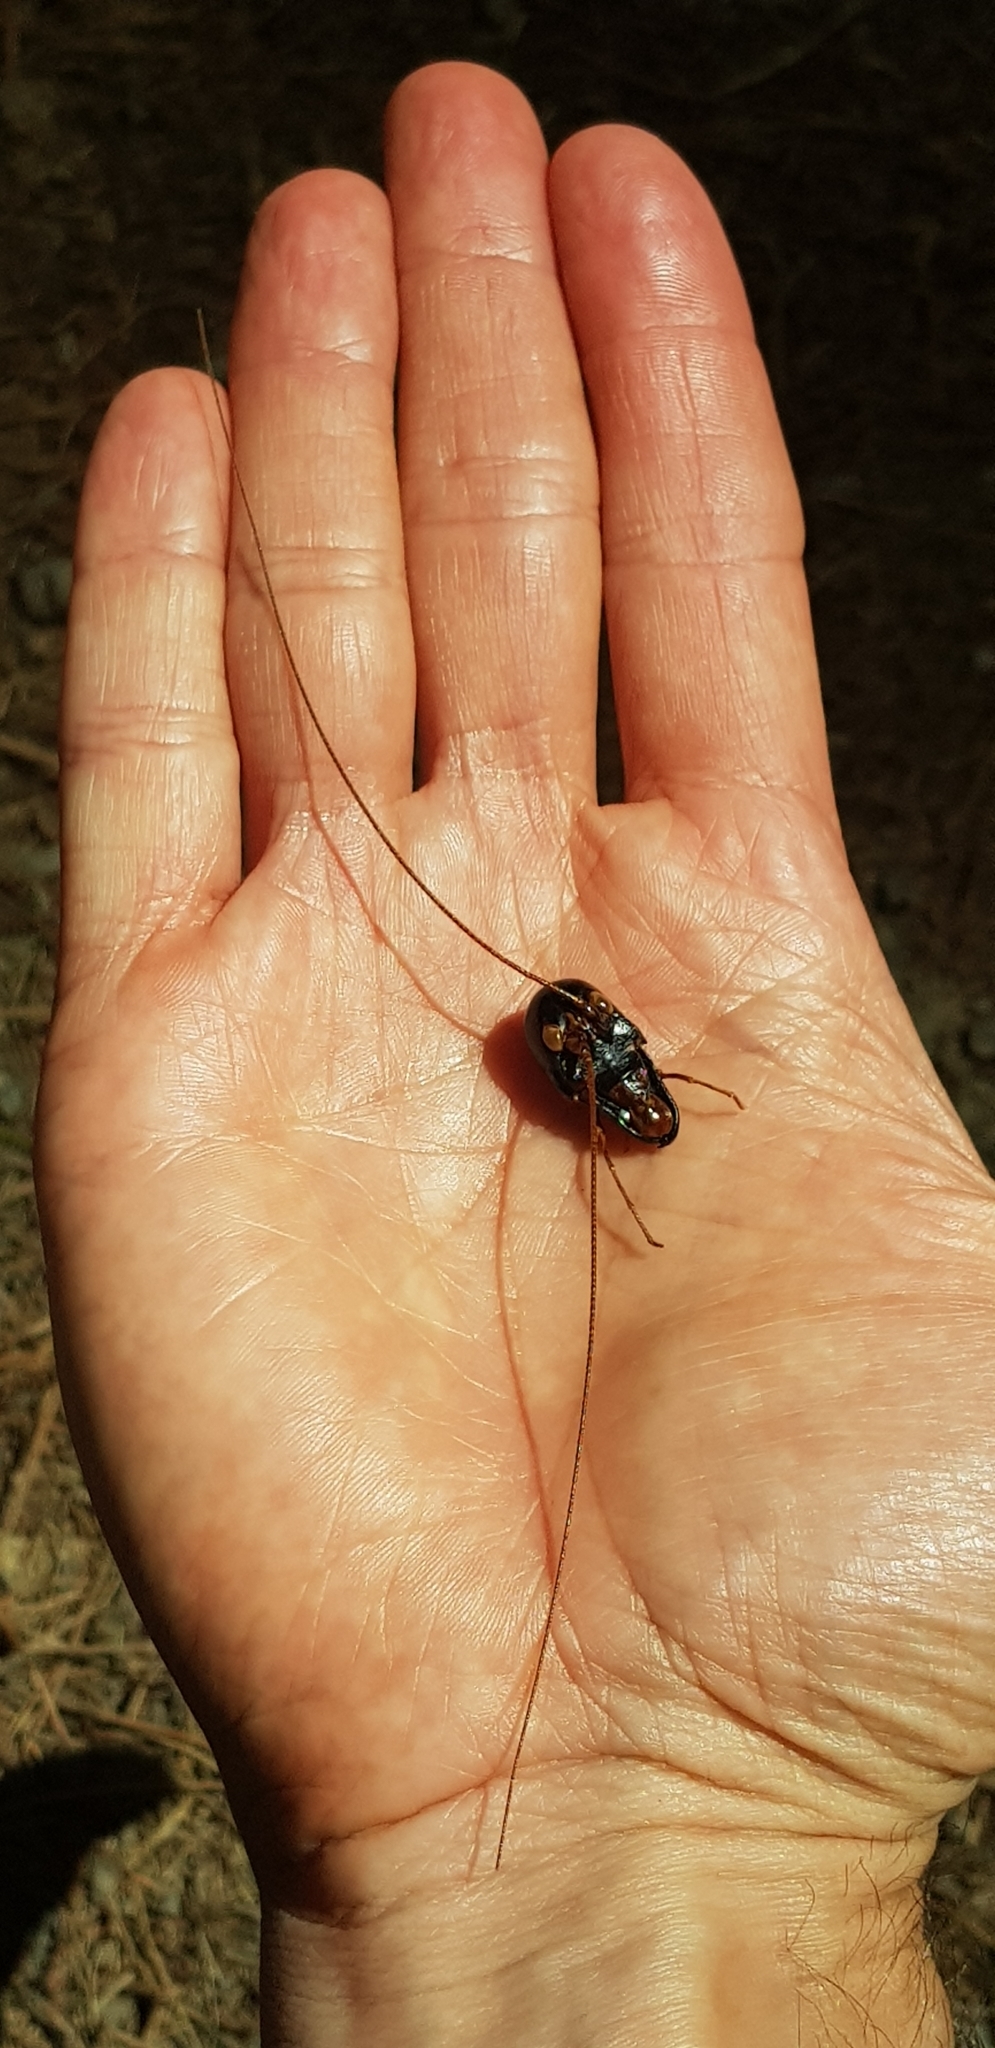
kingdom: Animalia
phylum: Arthropoda
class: Insecta
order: Orthoptera
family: Anostostomatidae
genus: Hemideina
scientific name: Hemideina thoracica
